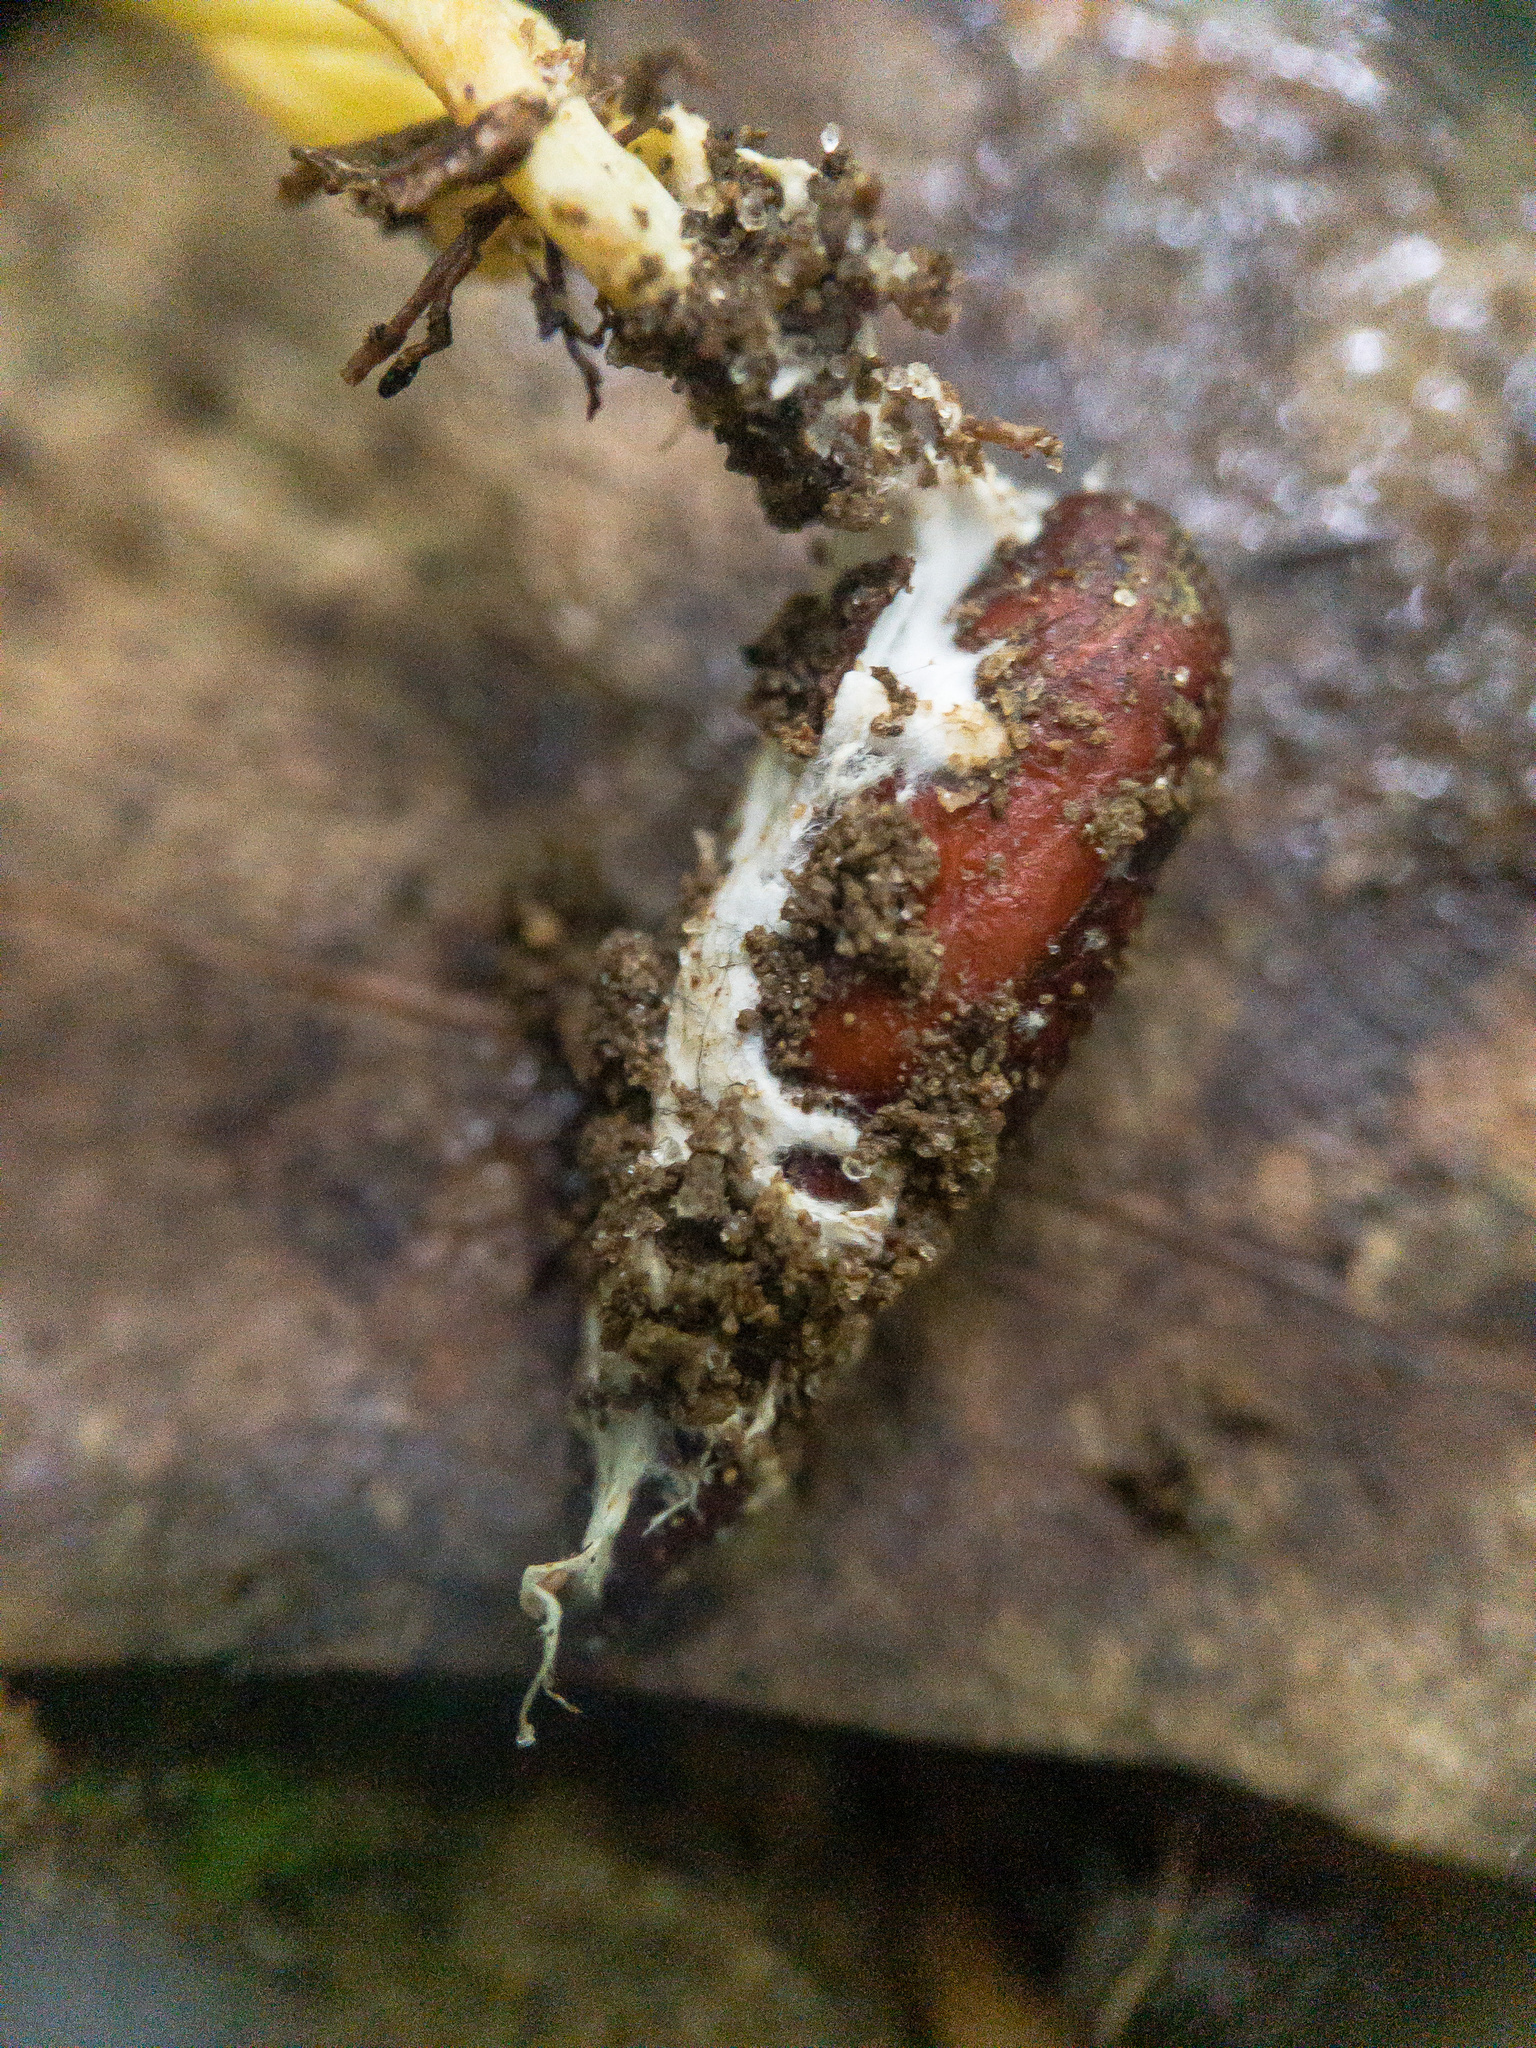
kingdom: Fungi
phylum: Ascomycota
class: Sordariomycetes
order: Hypocreales
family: Cordycipitaceae
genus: Cordyceps
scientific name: Cordyceps tenuipes
